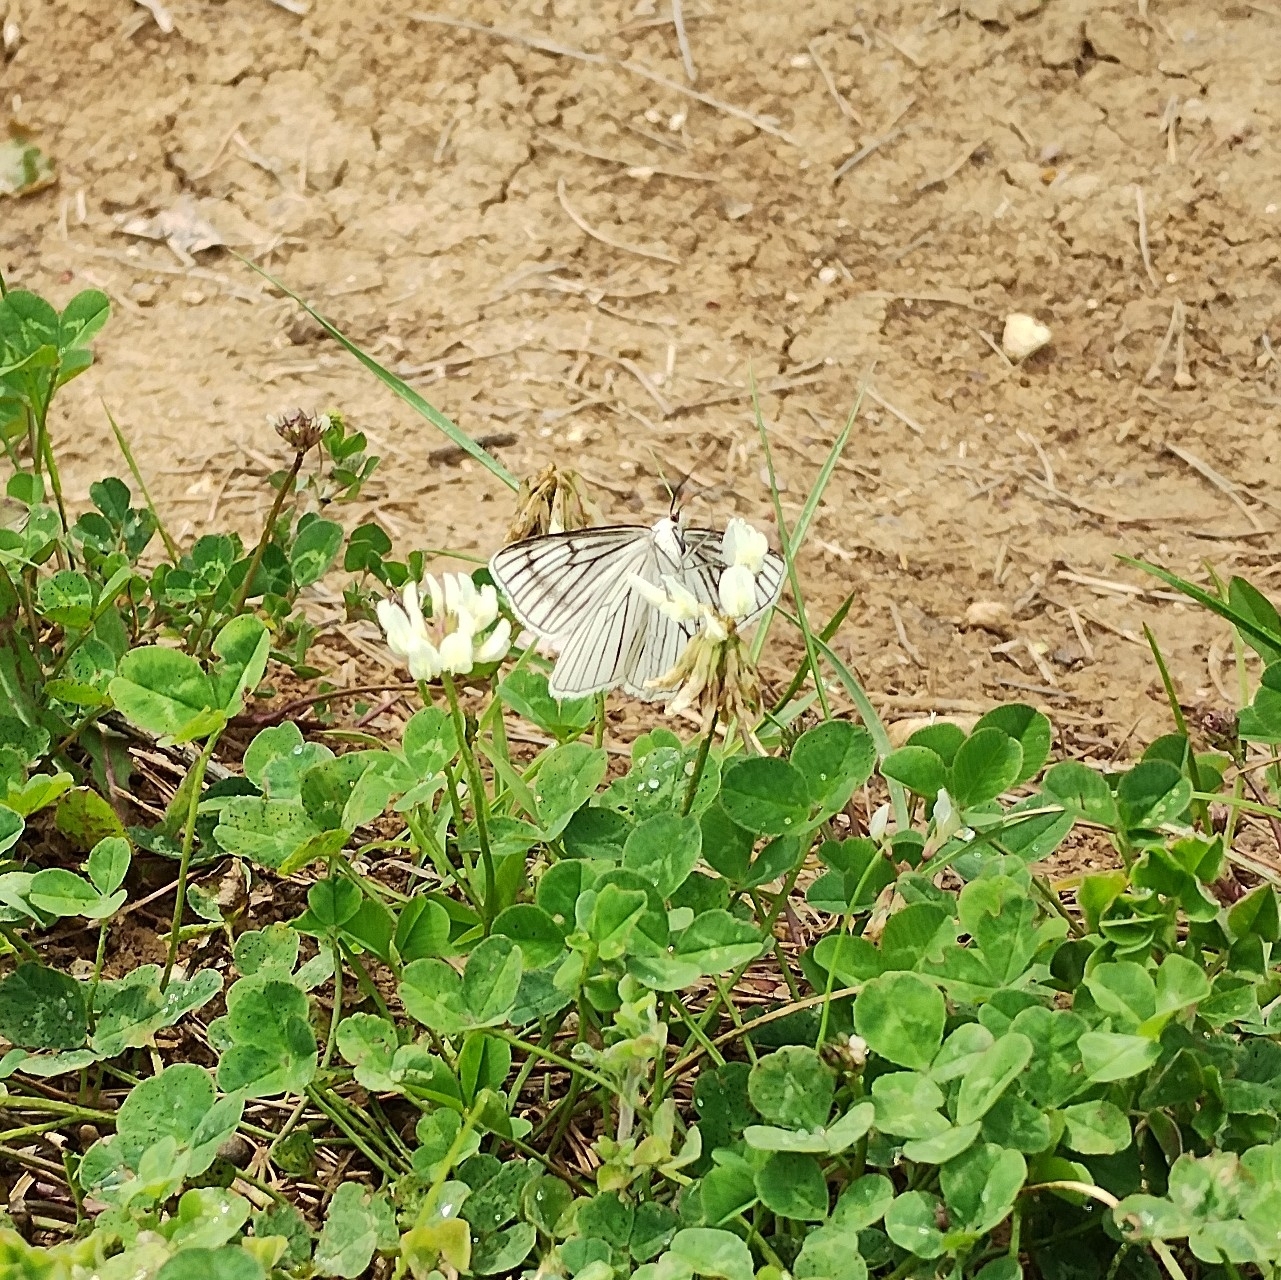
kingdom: Animalia
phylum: Arthropoda
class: Insecta
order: Lepidoptera
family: Geometridae
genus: Siona
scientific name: Siona lineata
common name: Black-veined moth
